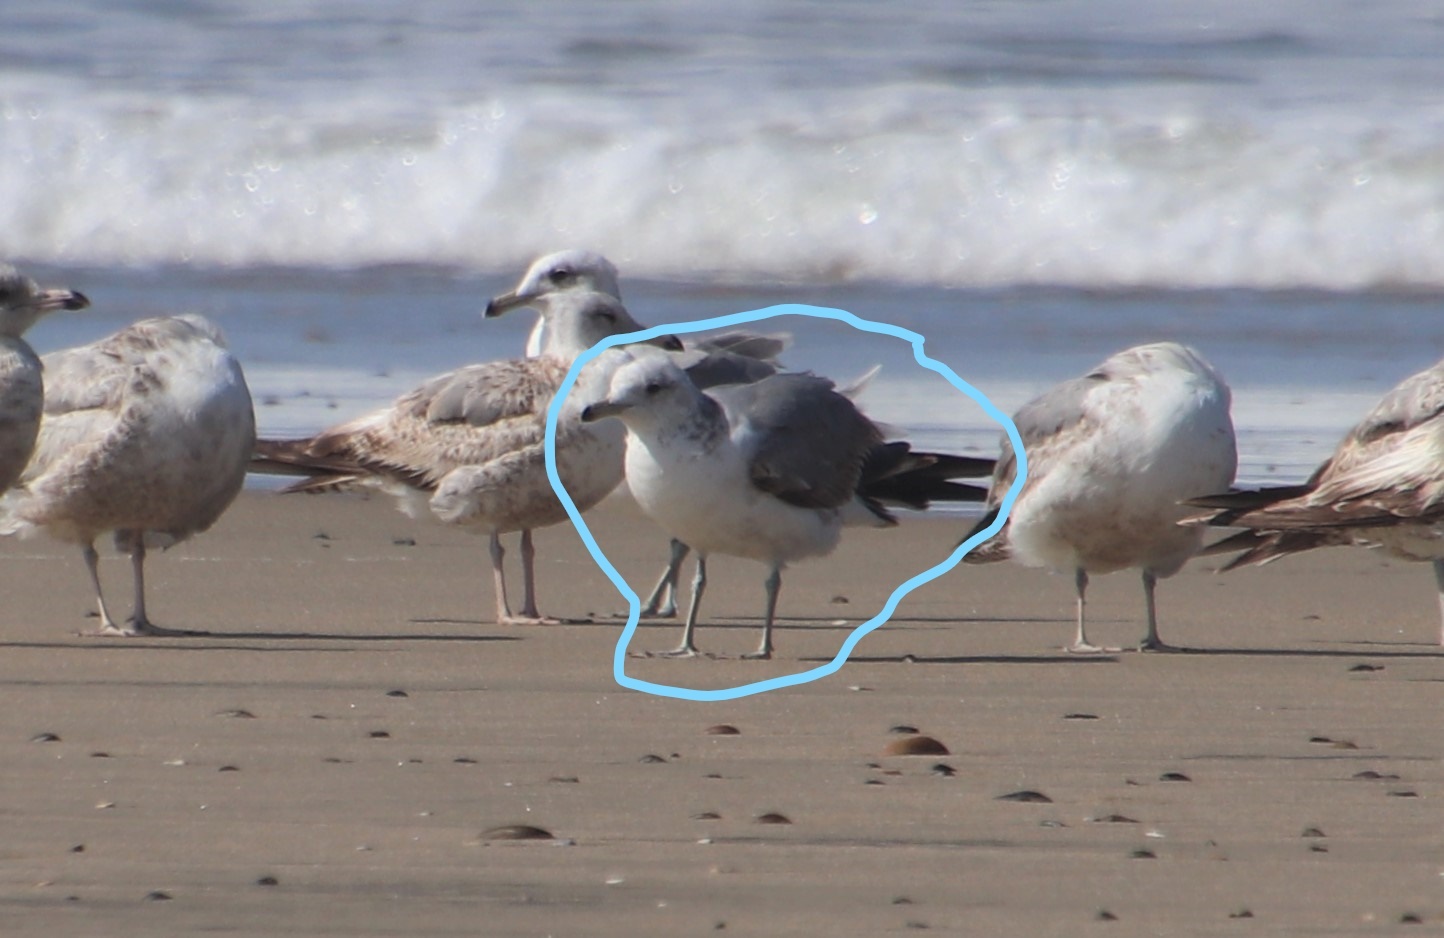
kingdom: Animalia
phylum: Chordata
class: Aves
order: Charadriiformes
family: Laridae
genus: Larus
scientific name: Larus californicus
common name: California gull
